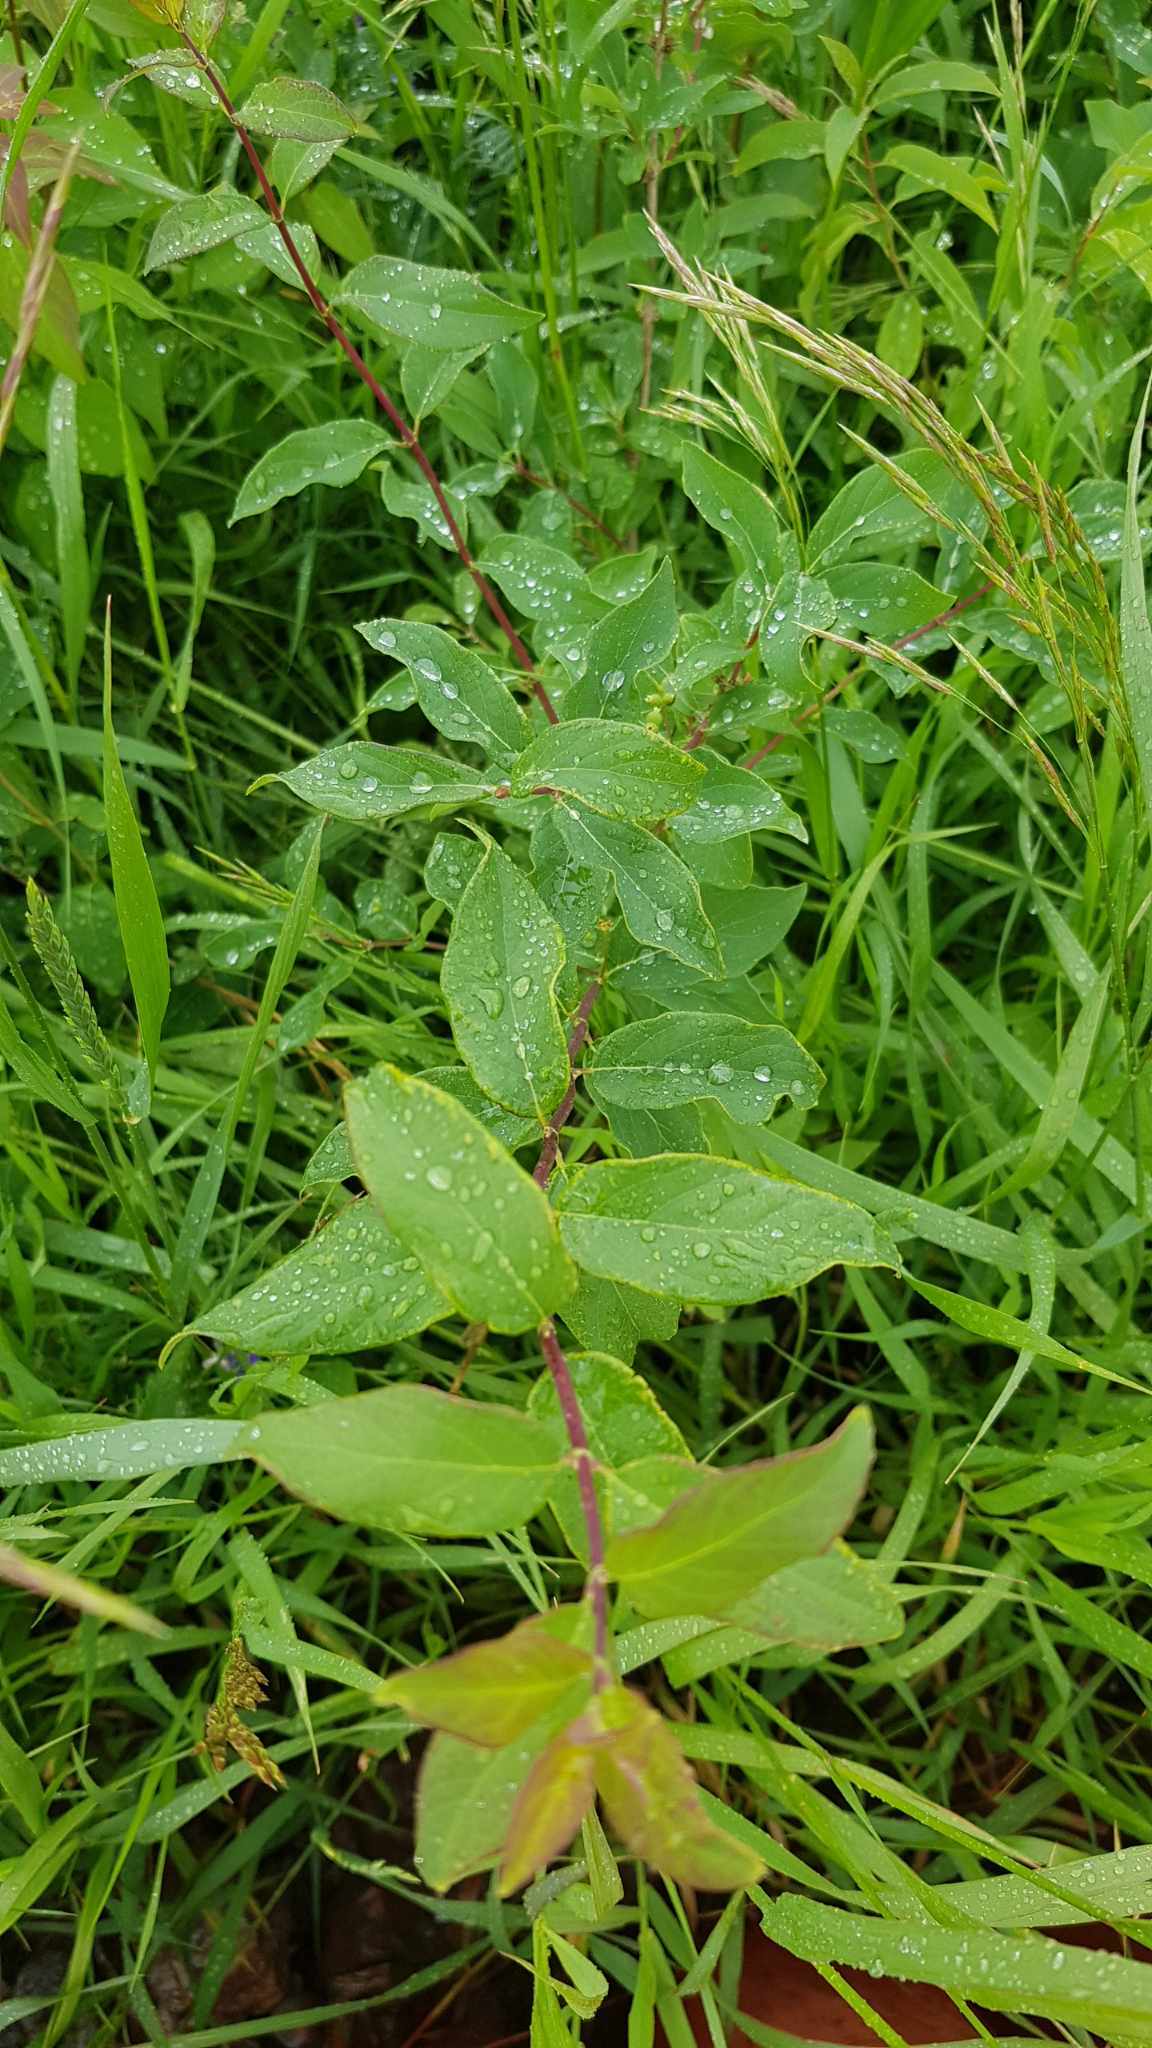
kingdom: Plantae
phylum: Tracheophyta
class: Magnoliopsida
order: Rosales
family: Rosaceae
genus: Spiraea
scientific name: Spiraea salicifolia
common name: Bridewort
